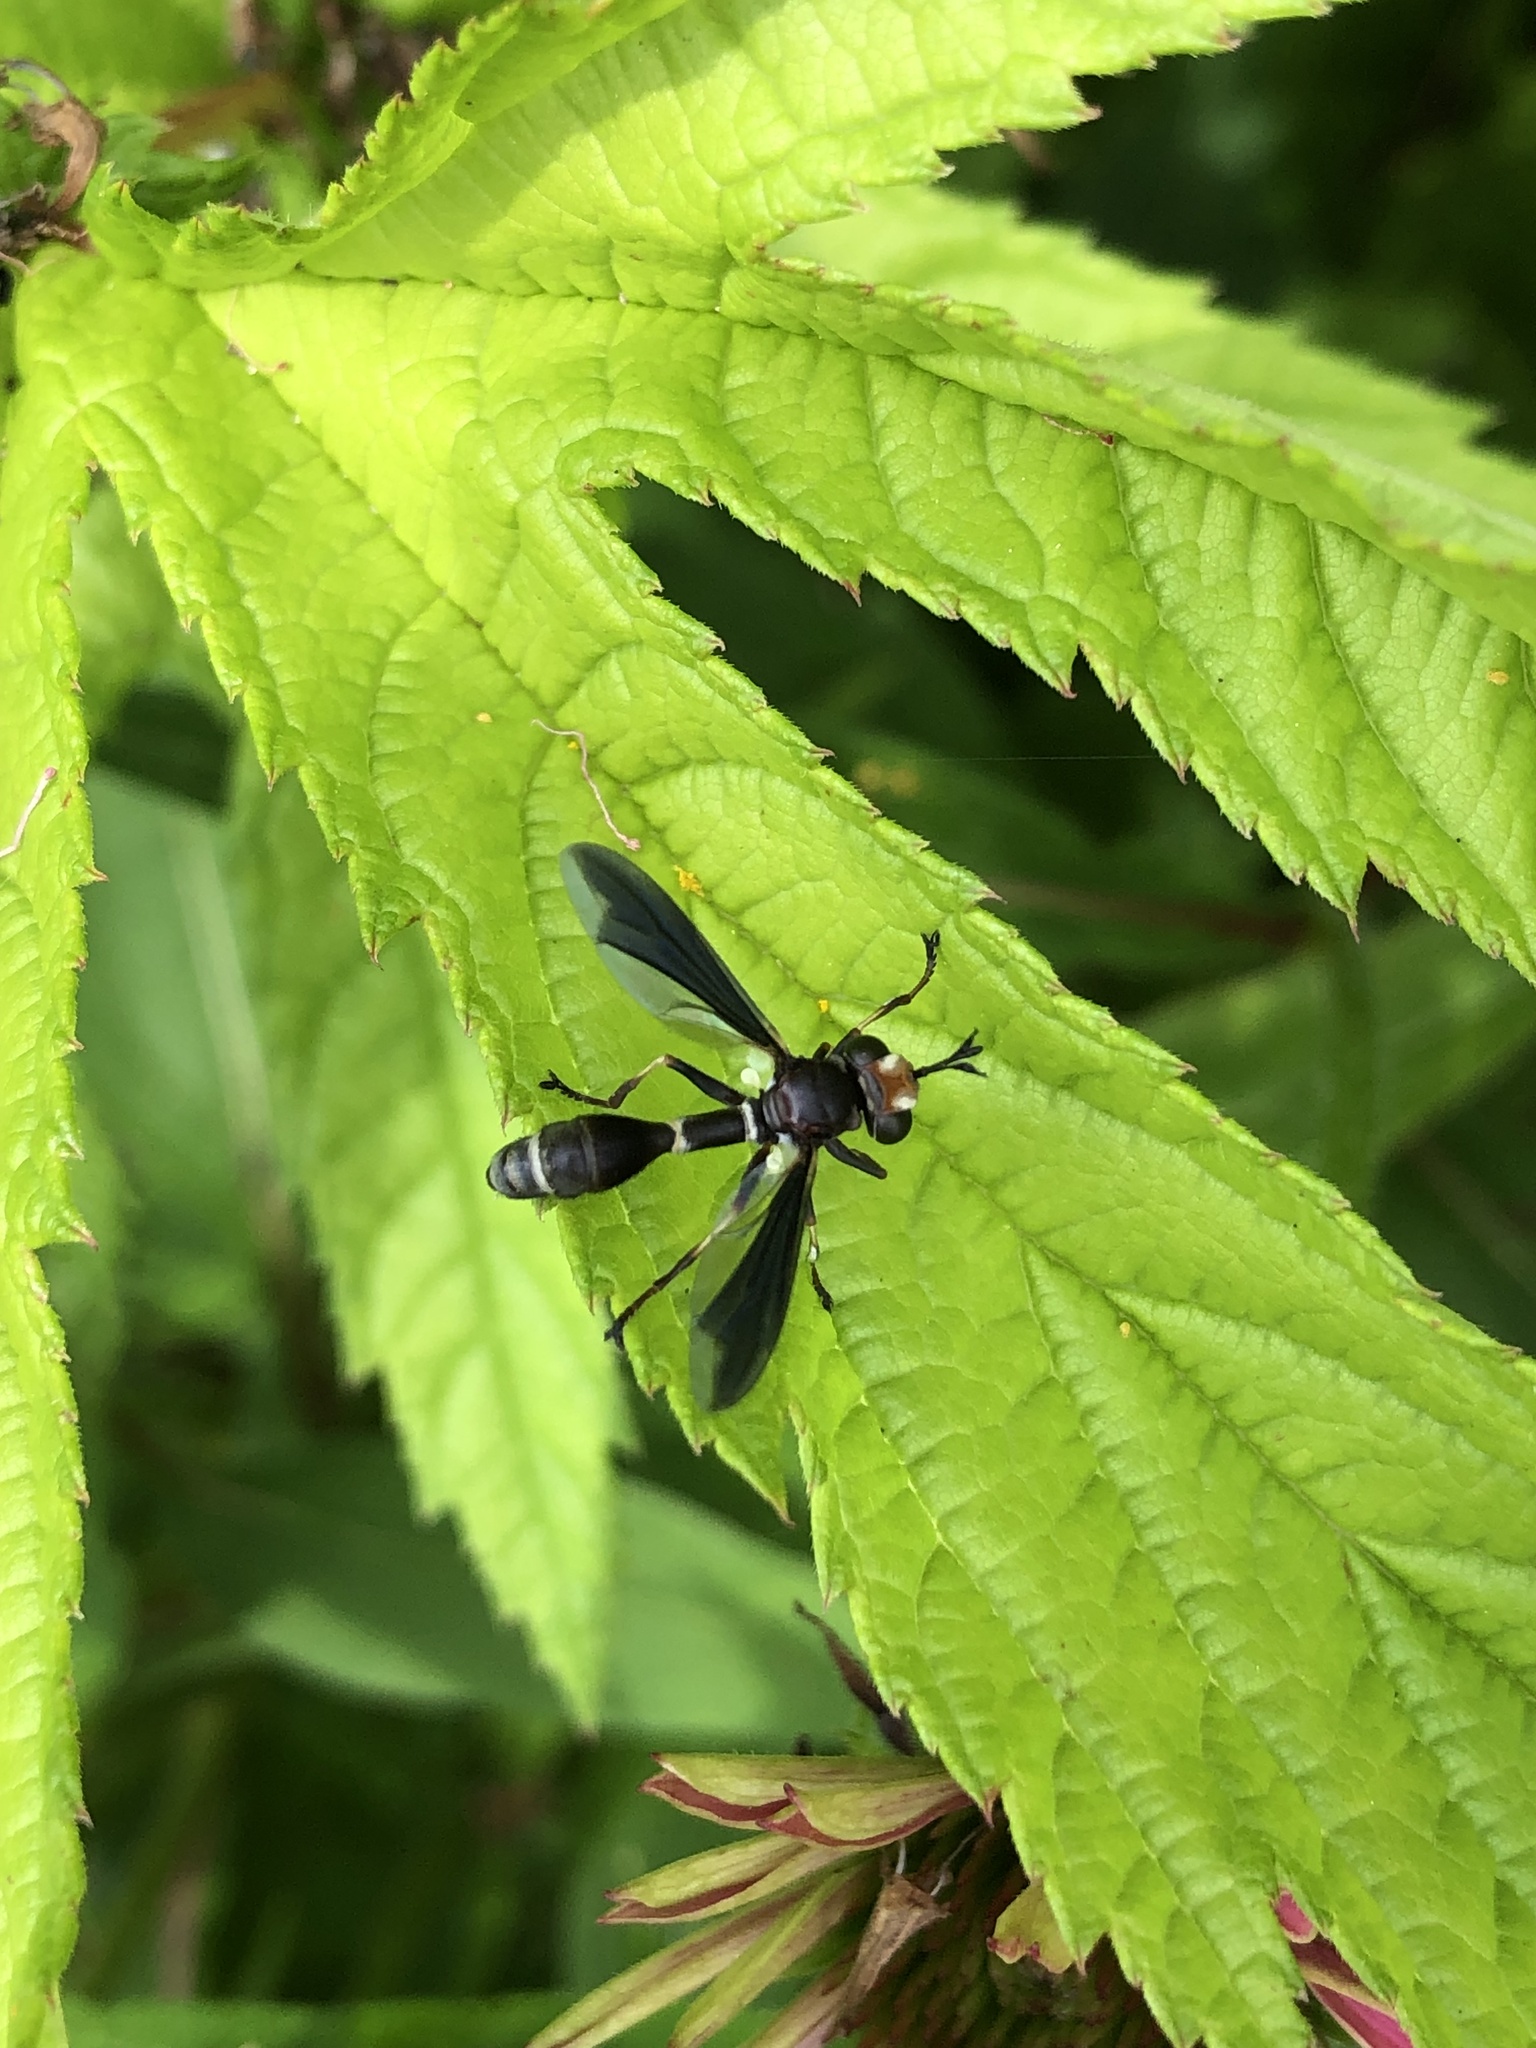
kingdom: Animalia
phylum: Arthropoda
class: Insecta
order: Diptera
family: Conopidae
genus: Physocephala
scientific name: Physocephala tibialis
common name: Common eastern physocephala
